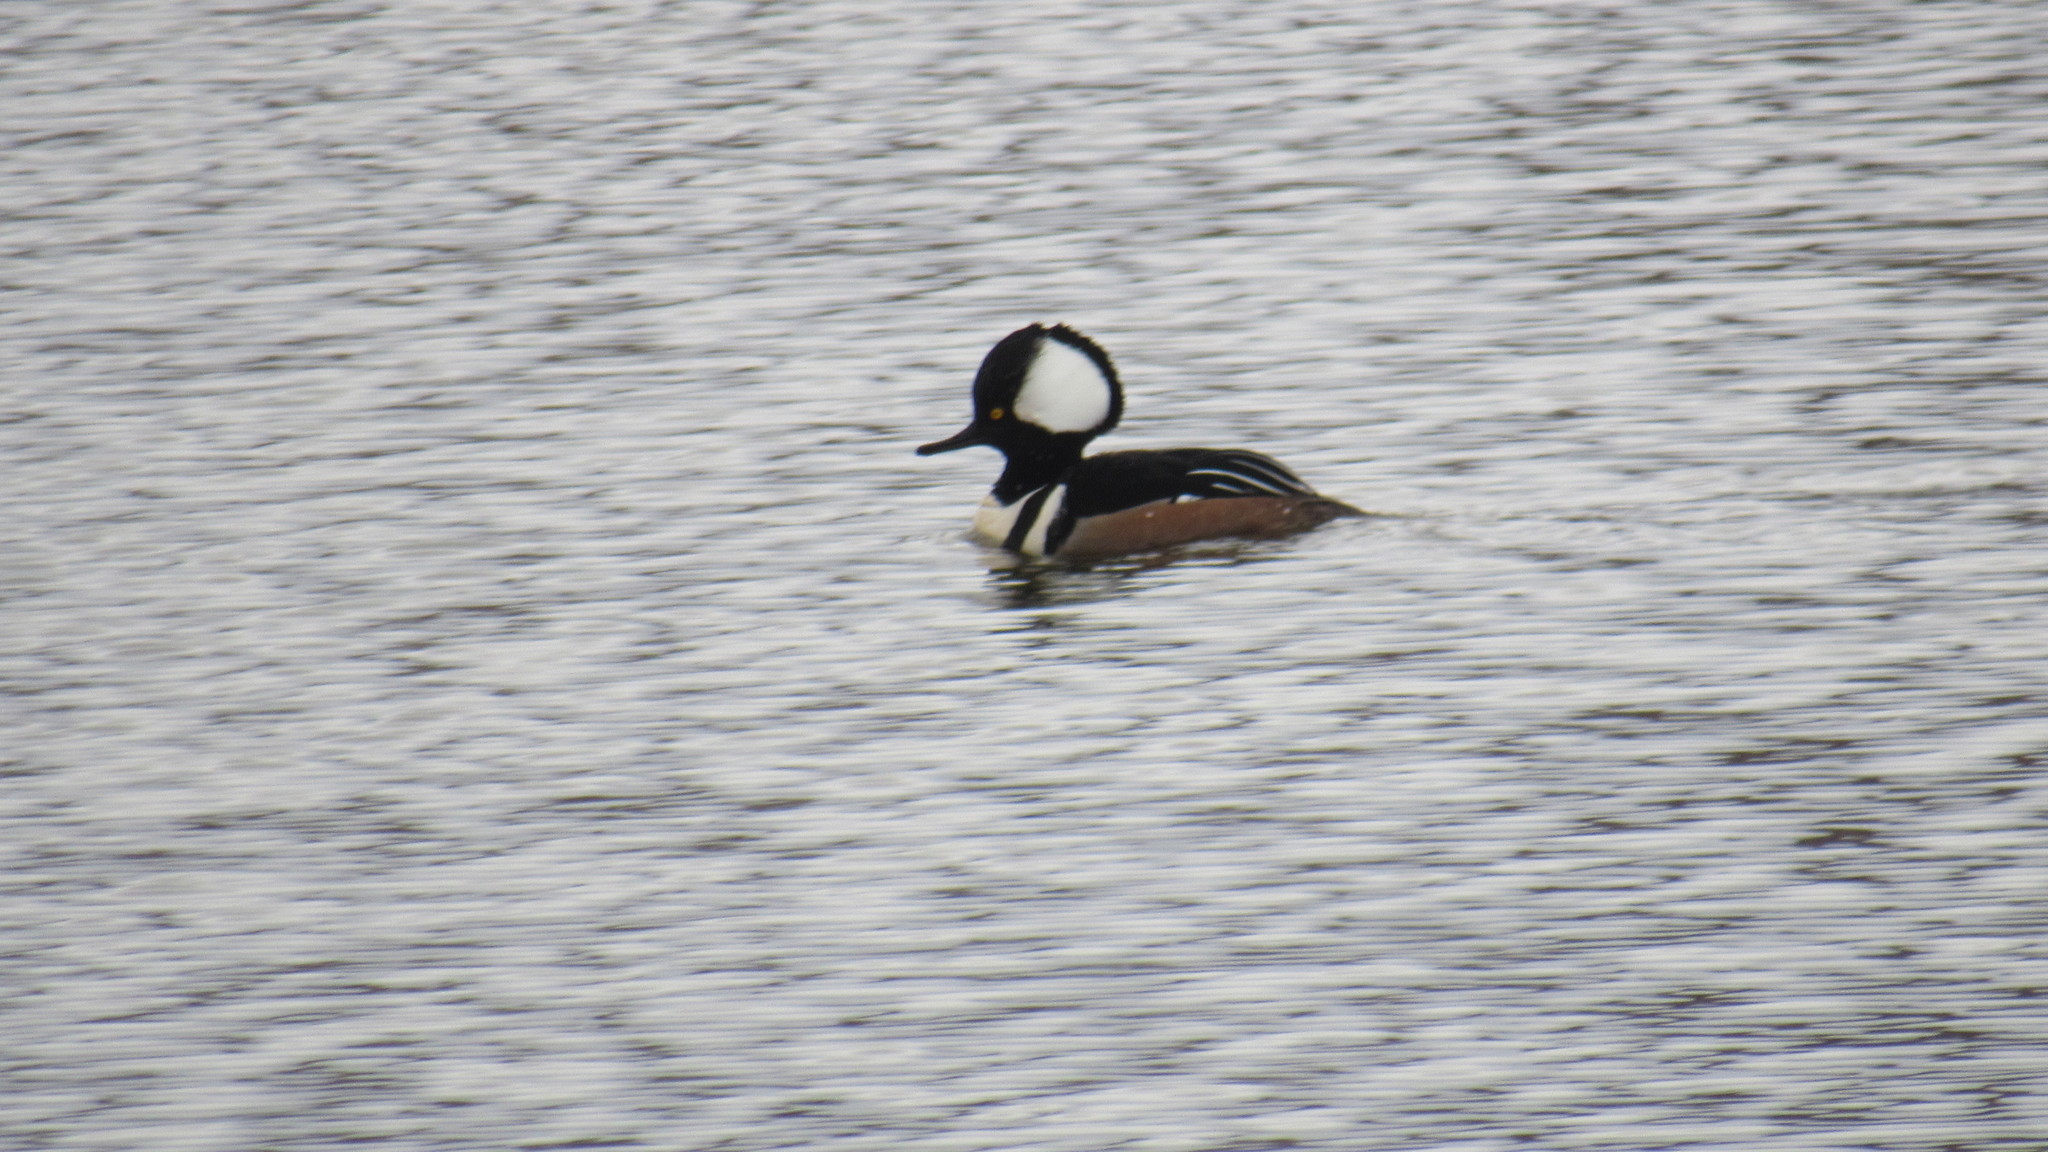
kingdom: Animalia
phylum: Chordata
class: Aves
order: Anseriformes
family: Anatidae
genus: Lophodytes
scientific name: Lophodytes cucullatus
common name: Hooded merganser
